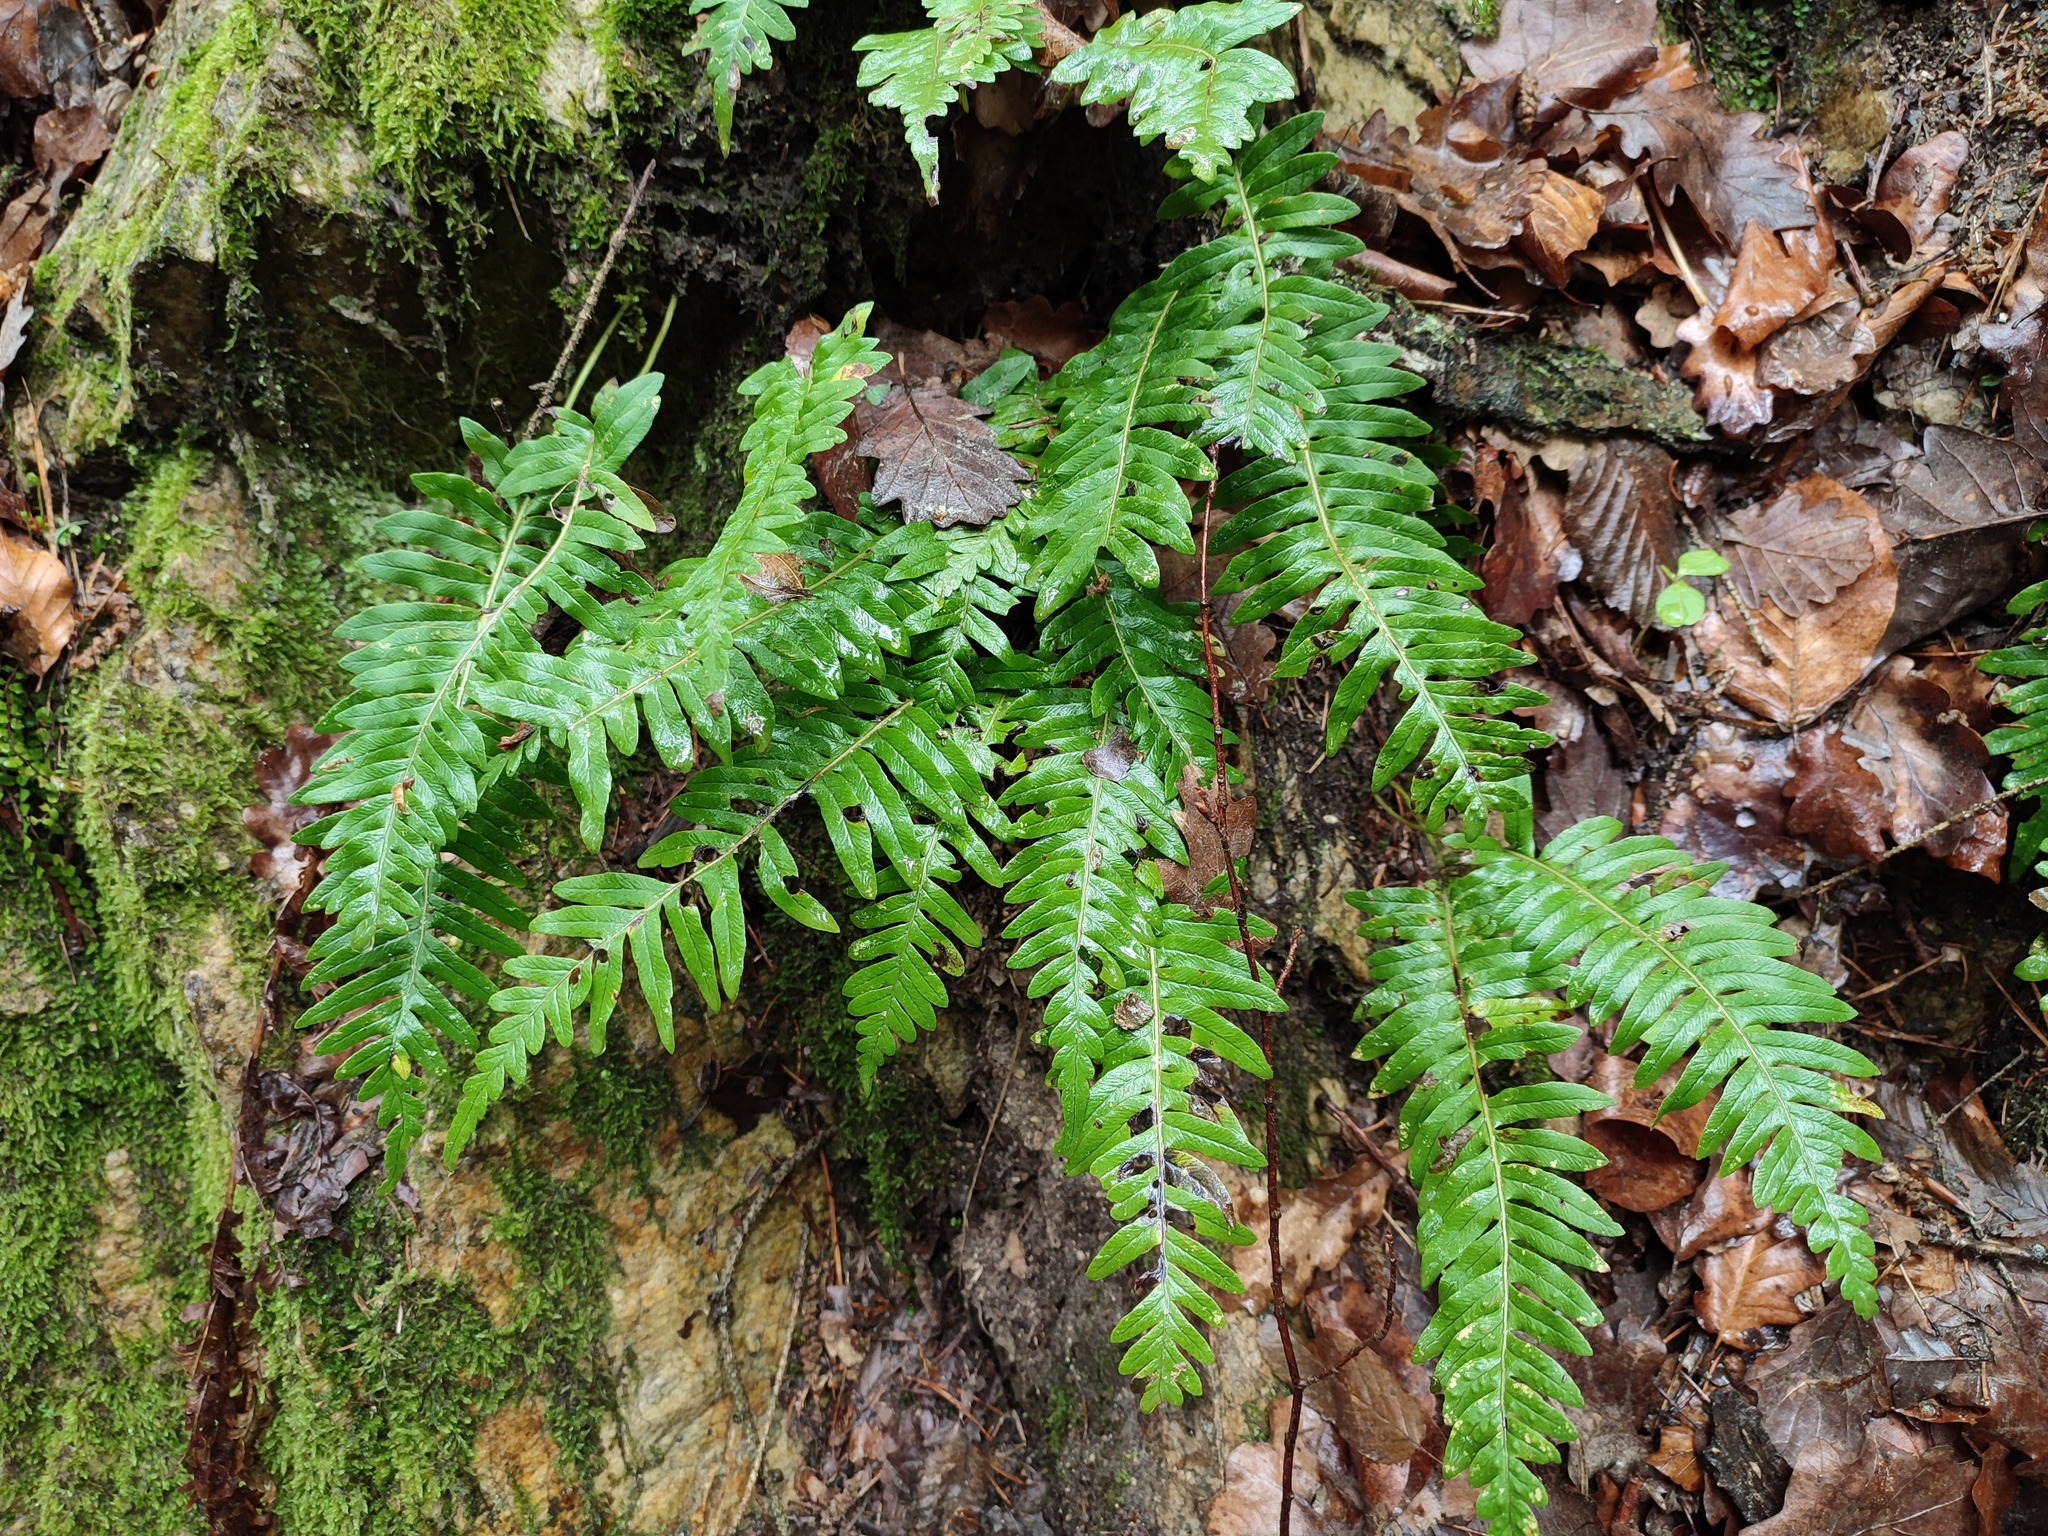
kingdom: Plantae
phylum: Tracheophyta
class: Polypodiopsida
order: Polypodiales
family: Polypodiaceae
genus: Polypodium
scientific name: Polypodium vulgare
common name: Common polypody
